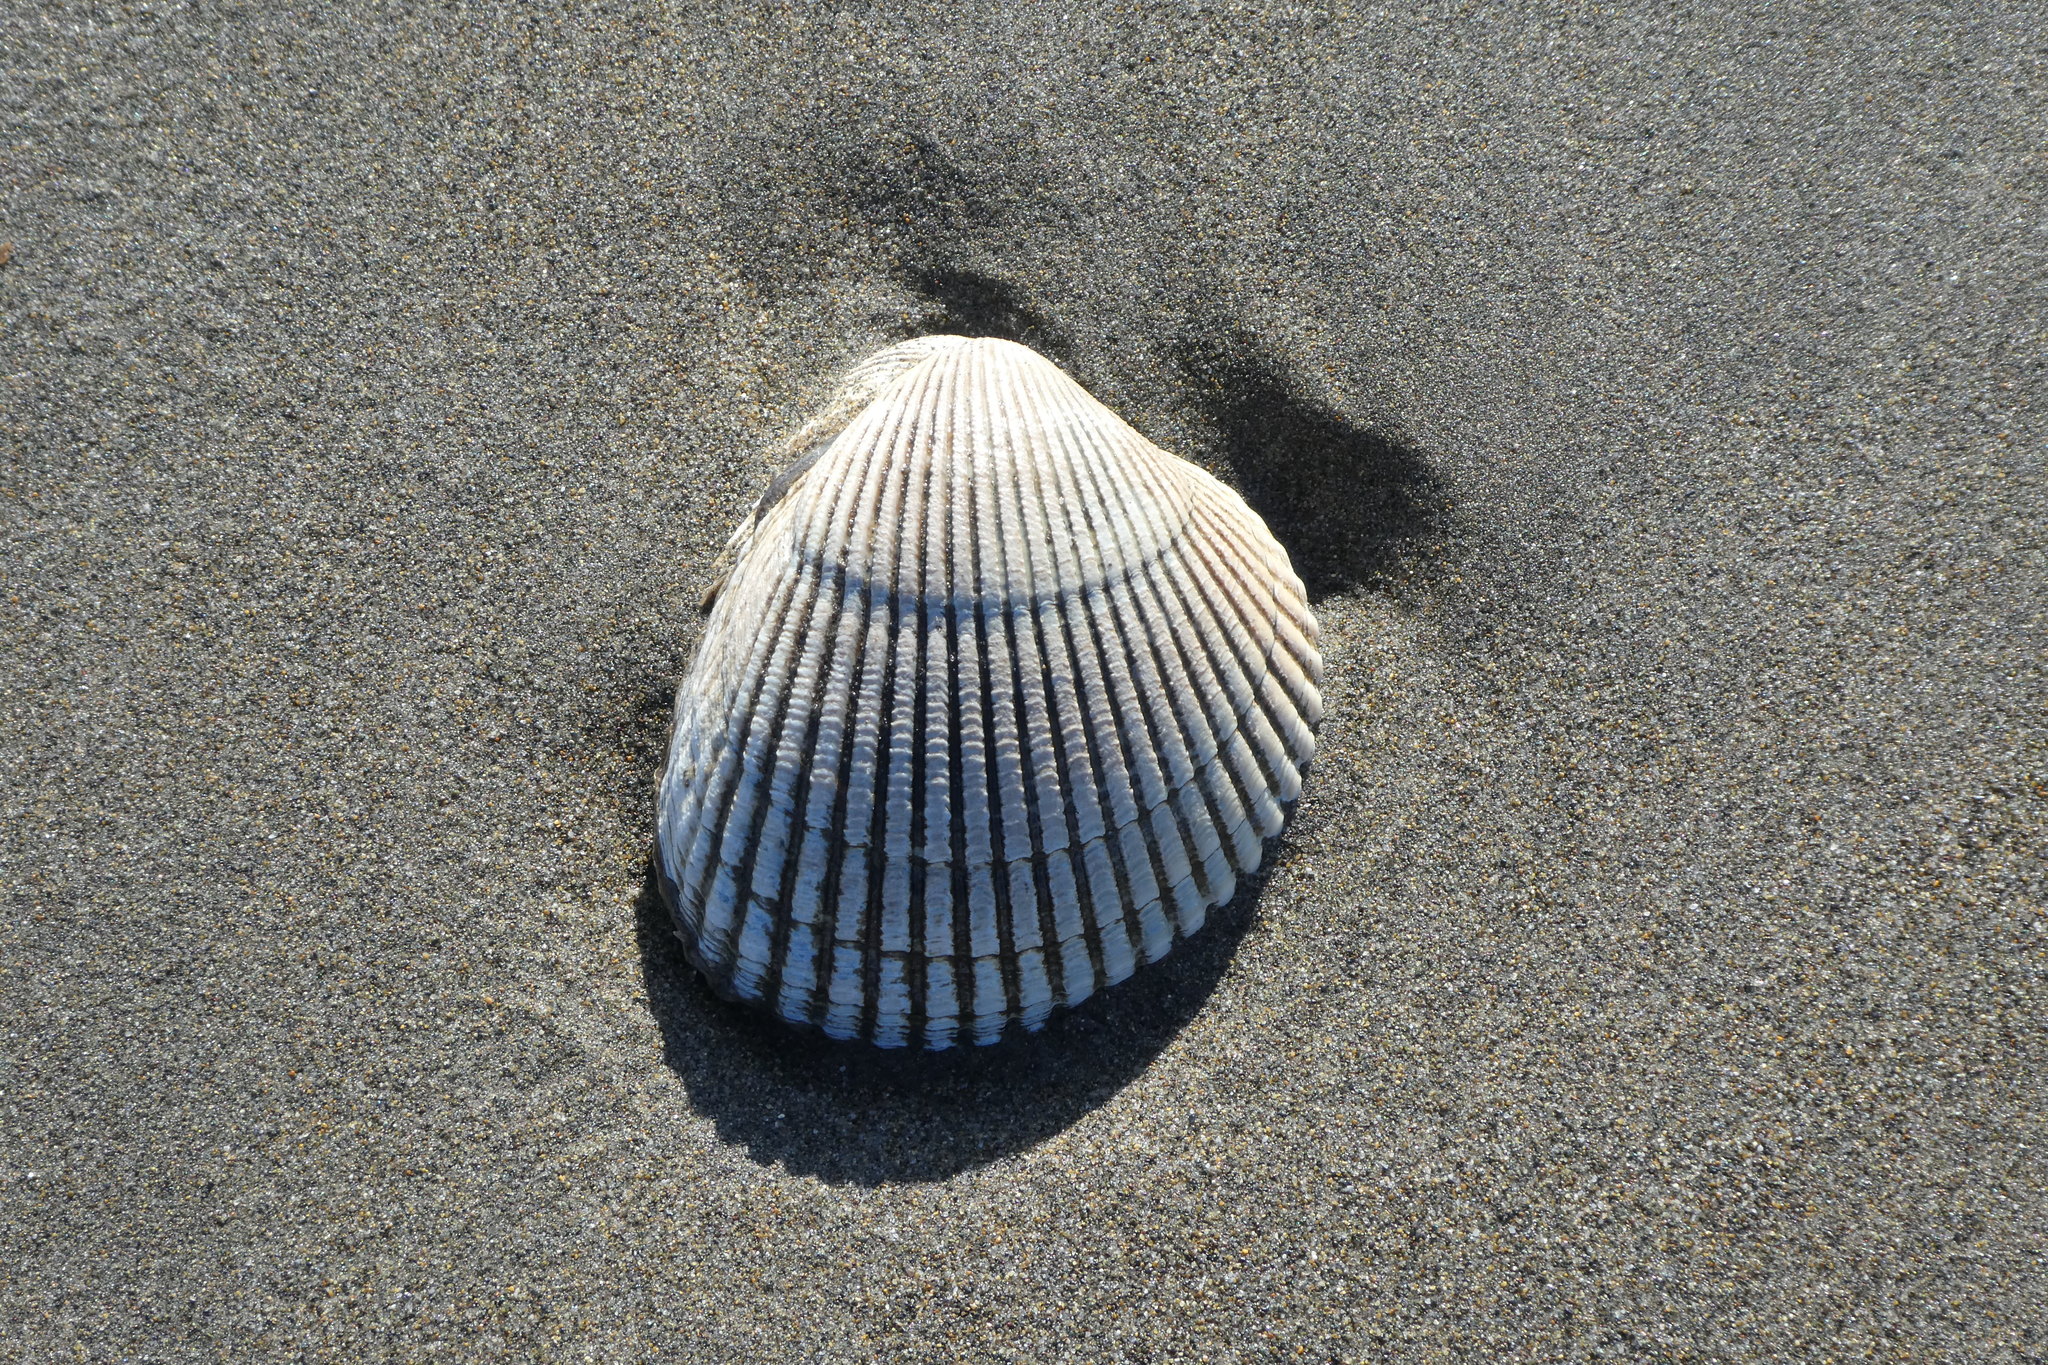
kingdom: Animalia
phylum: Mollusca
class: Bivalvia
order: Cardiida
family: Cardiidae
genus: Clinocardium
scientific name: Clinocardium nuttallii
